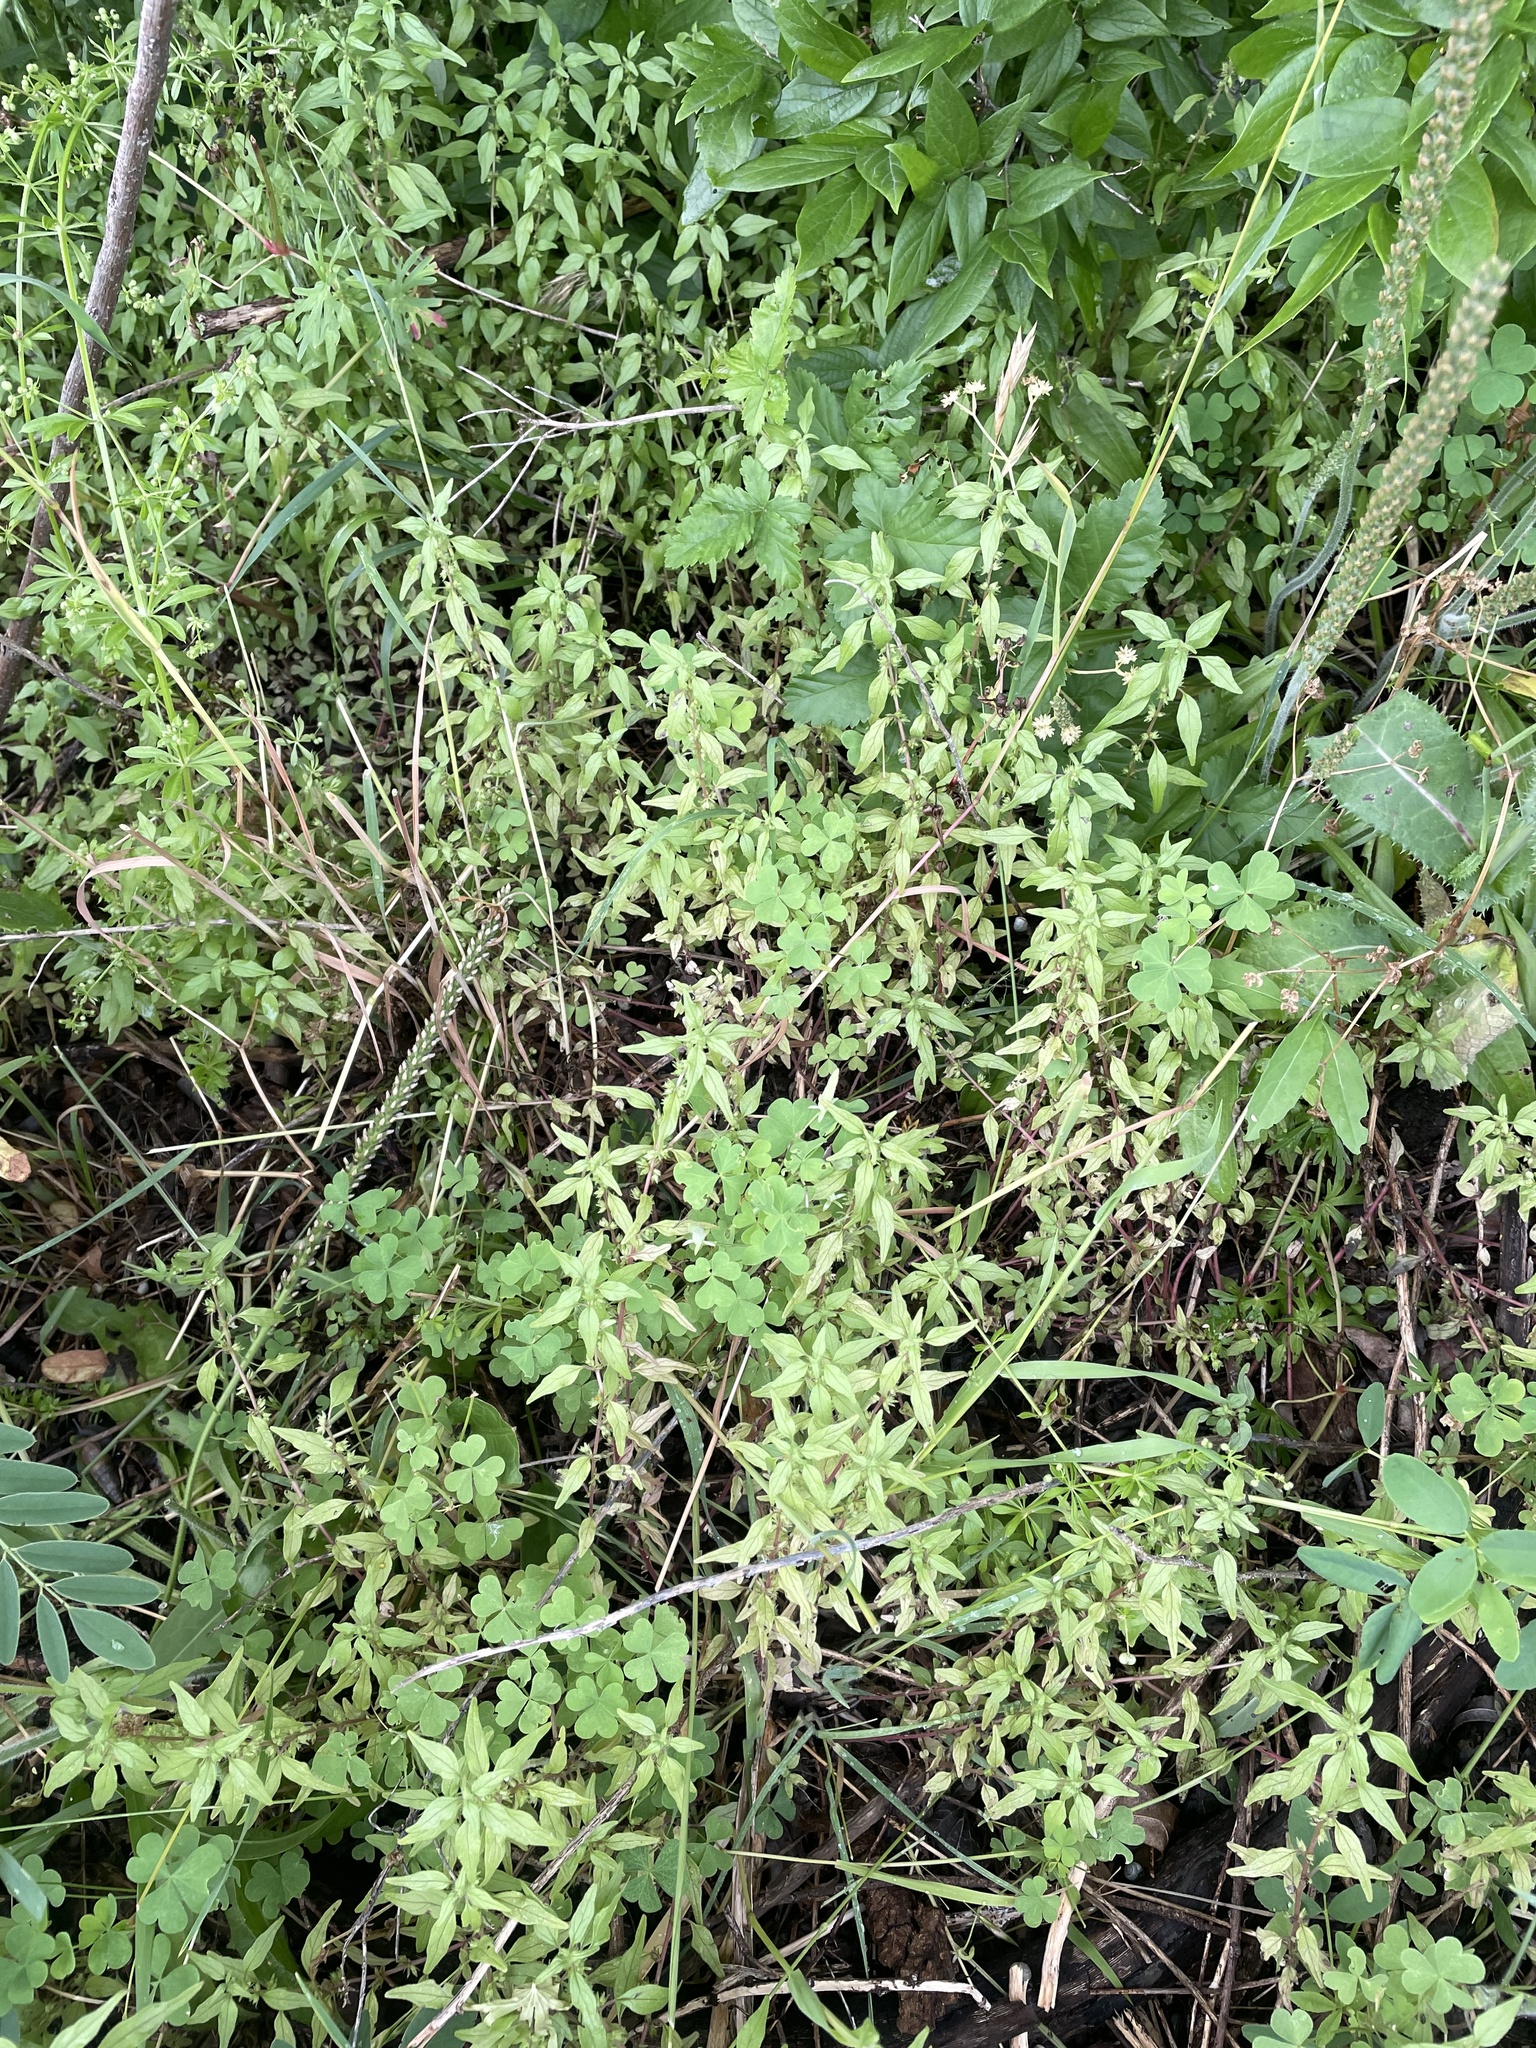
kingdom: Plantae
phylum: Tracheophyta
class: Magnoliopsida
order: Rosales
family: Urticaceae
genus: Parietaria
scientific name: Parietaria pensylvanica
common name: Pennsylvania pellitory
